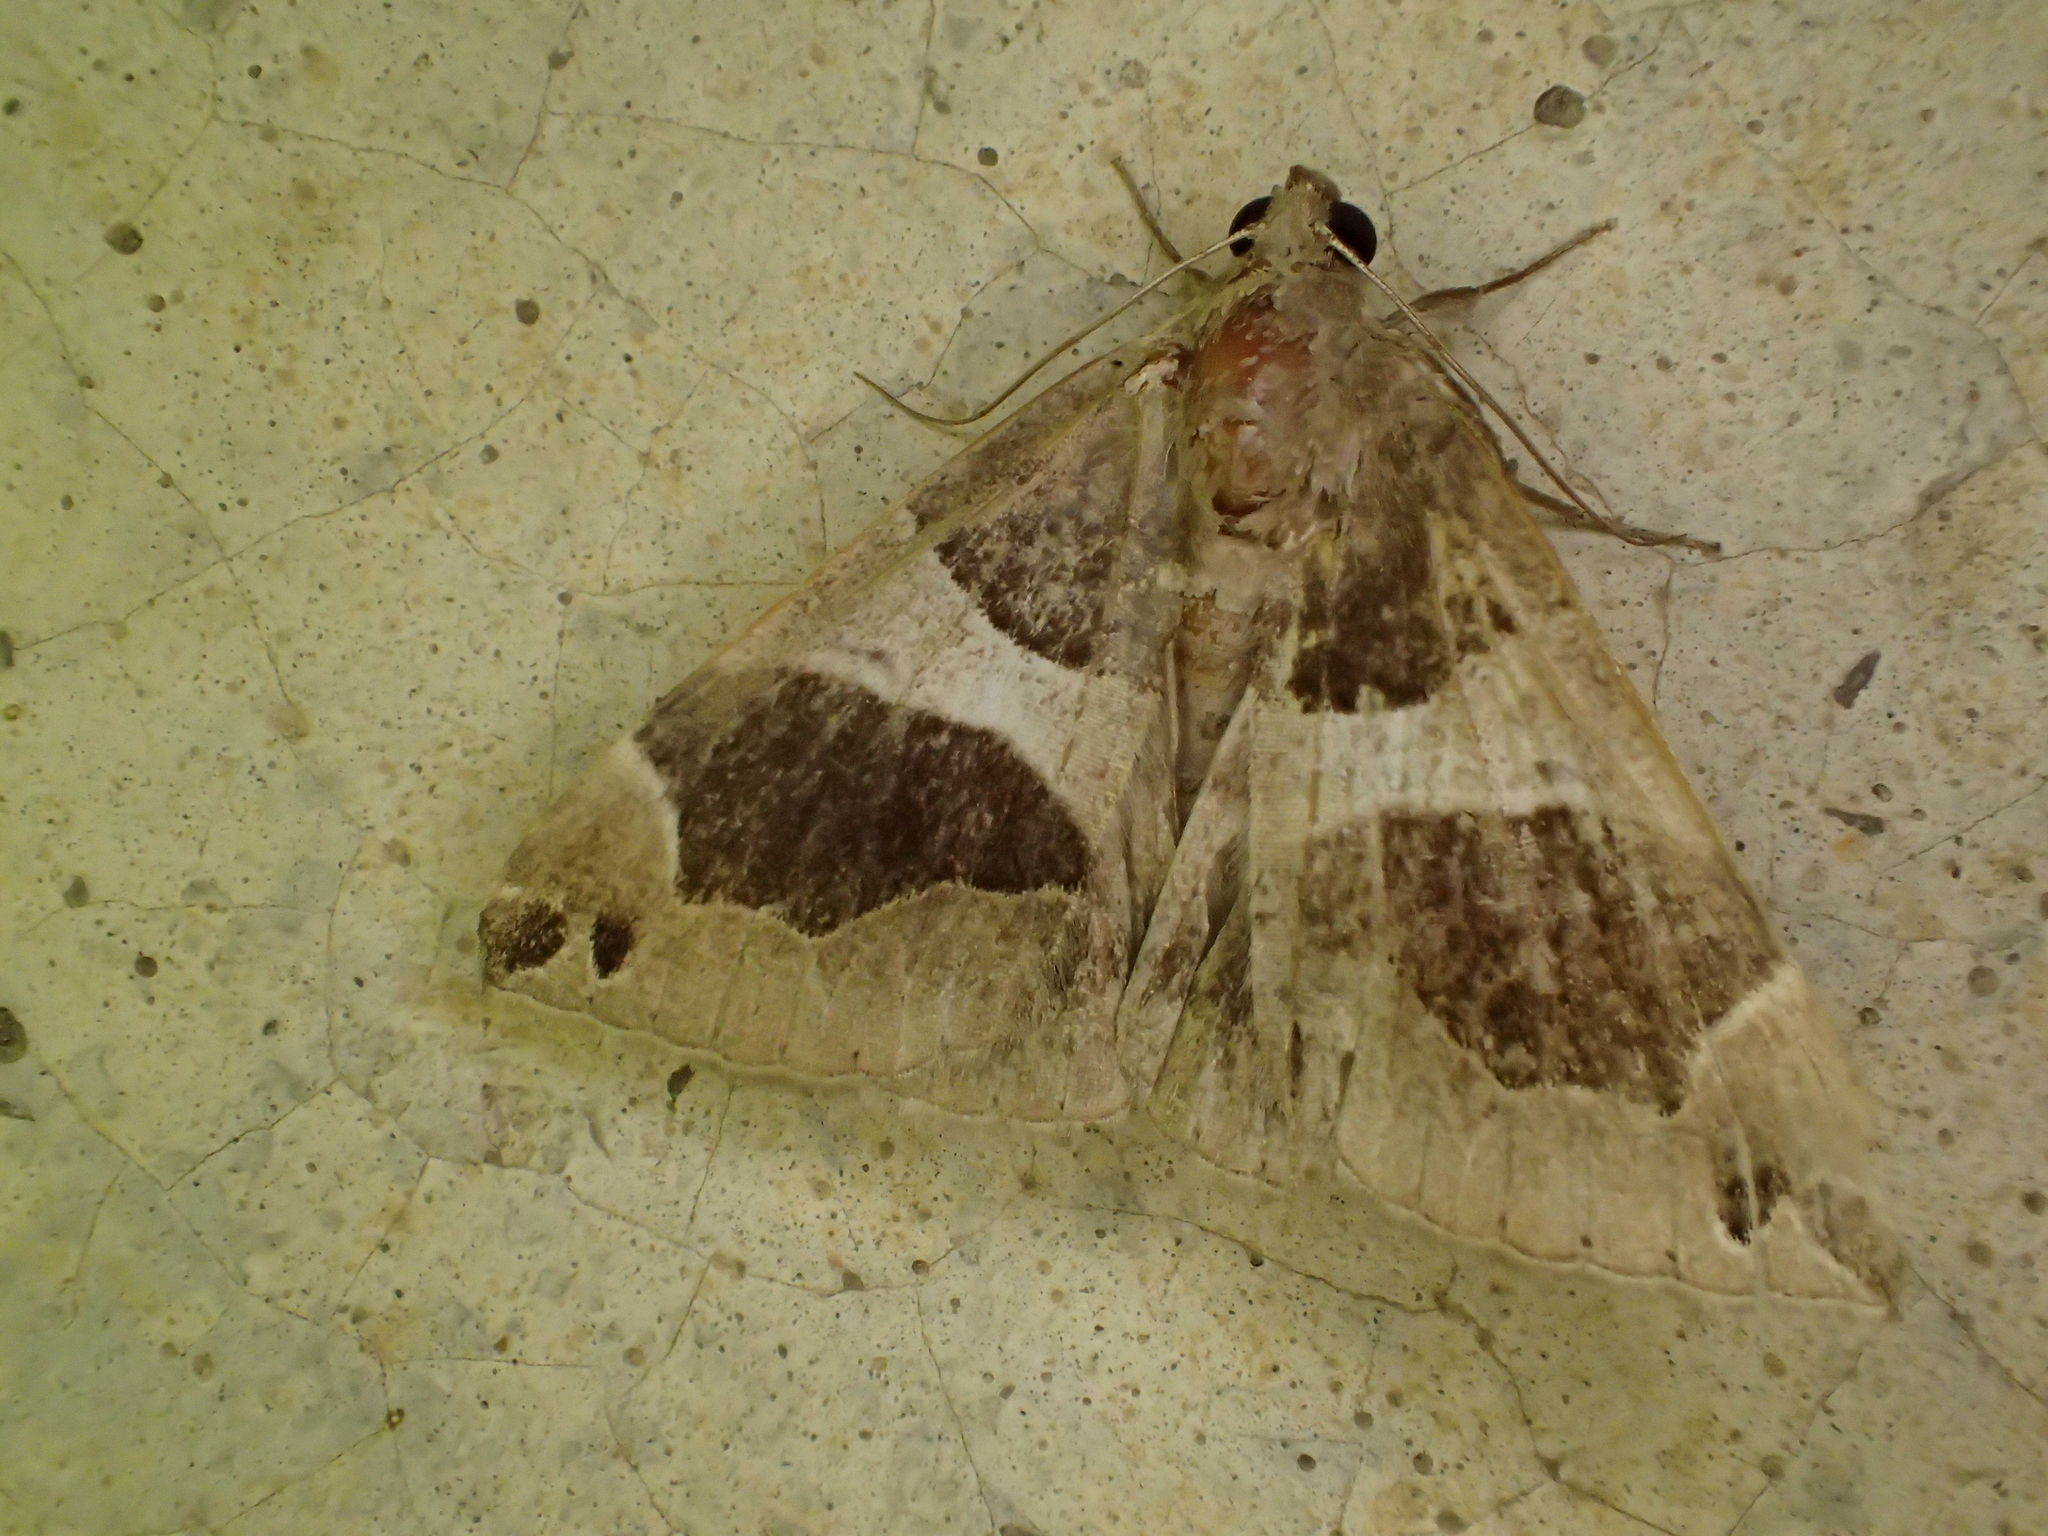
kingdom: Animalia
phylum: Arthropoda
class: Insecta
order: Lepidoptera
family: Erebidae
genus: Dysgonia
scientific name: Dysgonia algira
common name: Passenger
